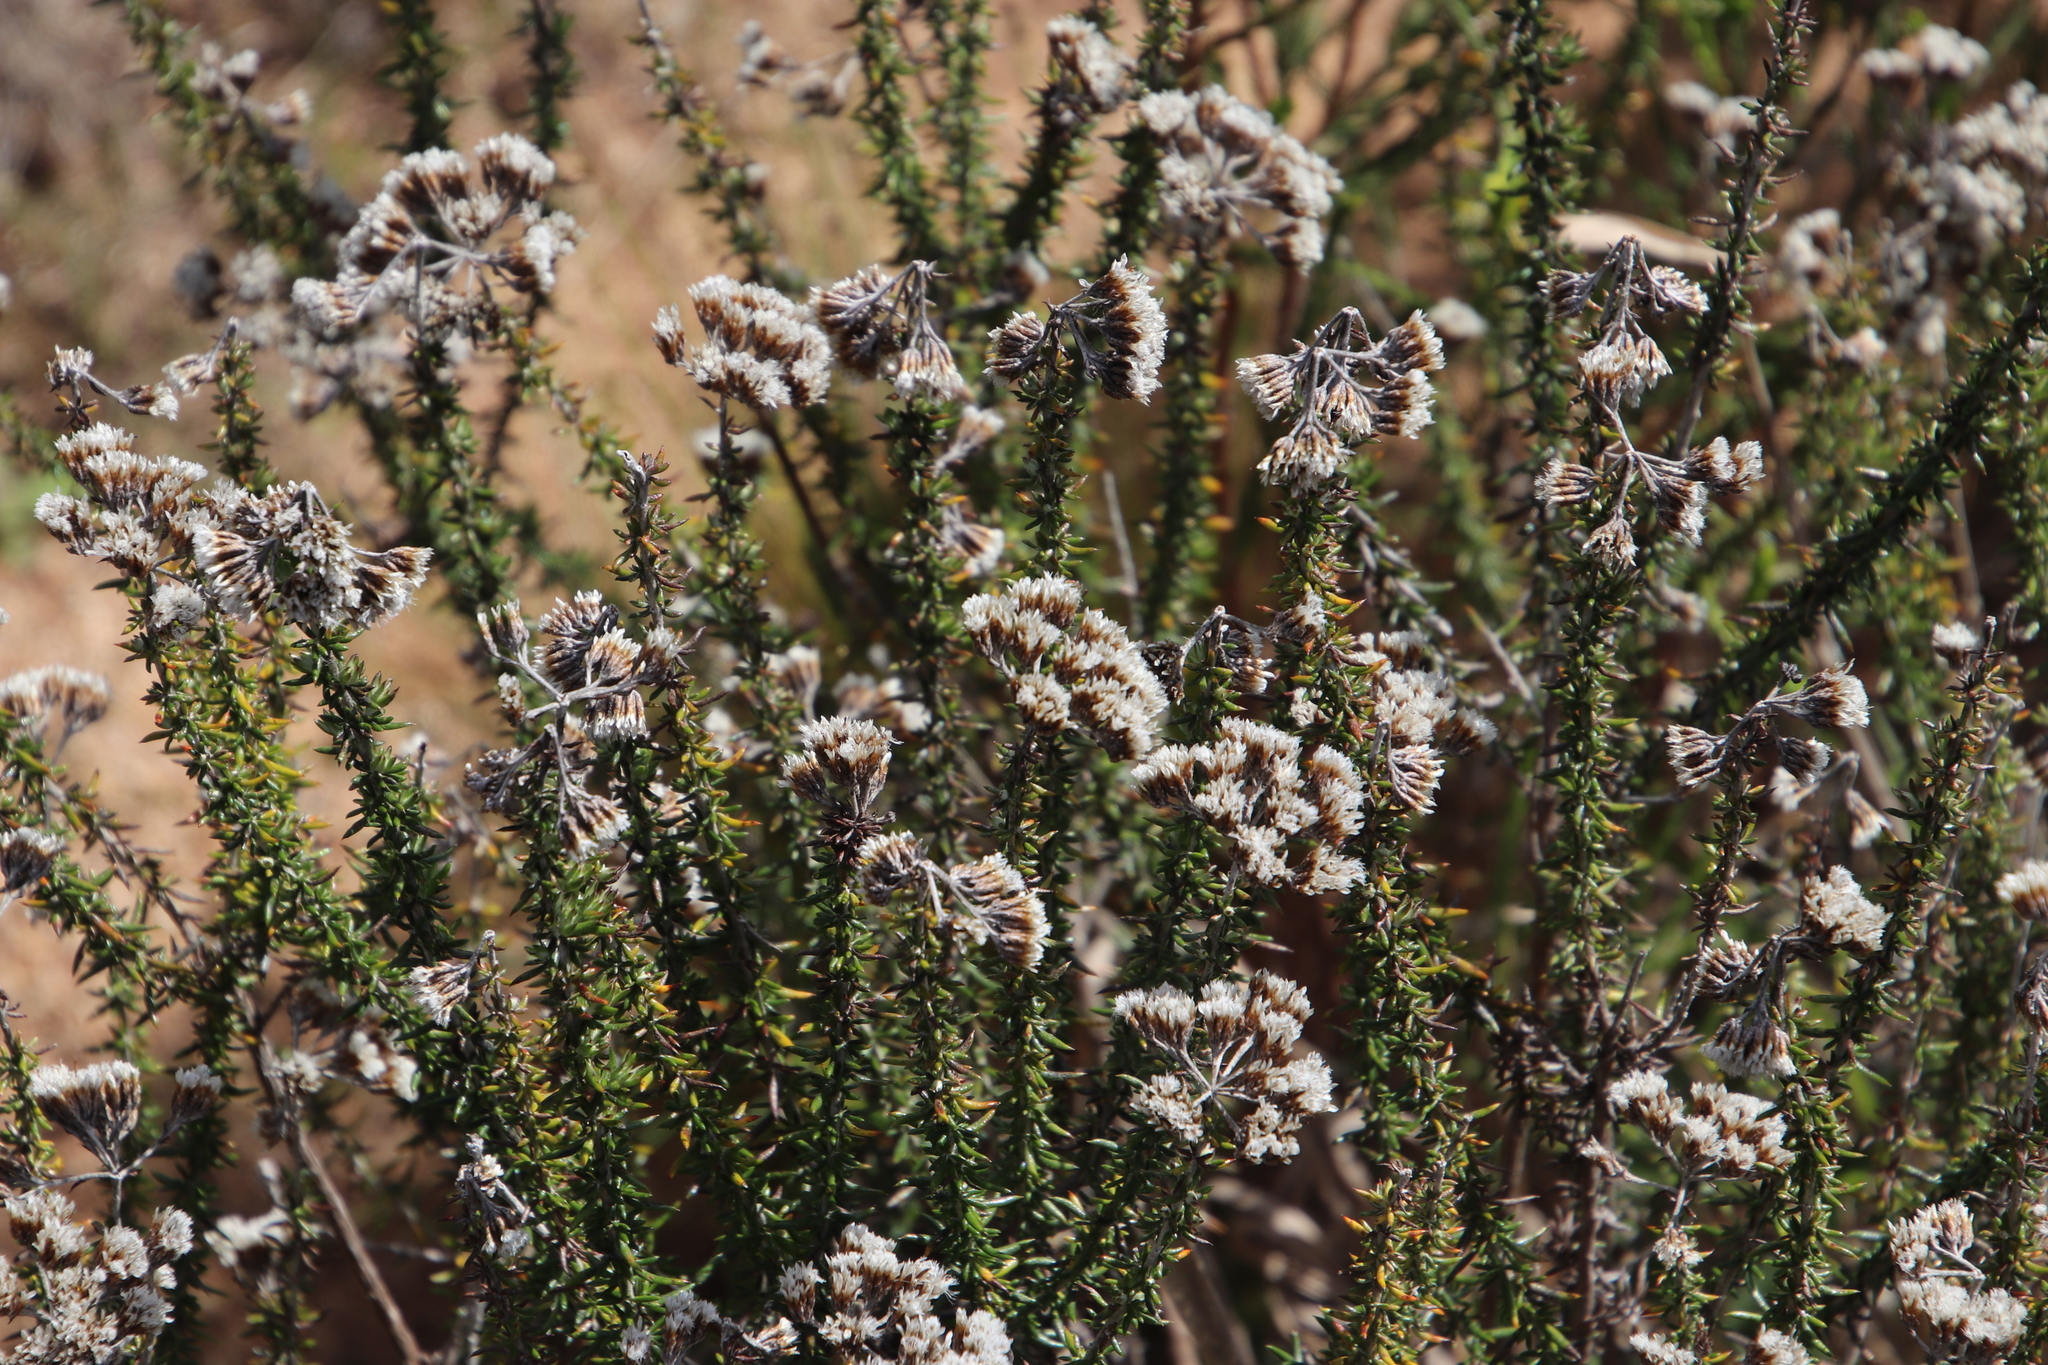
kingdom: Plantae
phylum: Tracheophyta
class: Magnoliopsida
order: Asterales
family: Asteraceae
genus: Metalasia
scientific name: Metalasia densa
